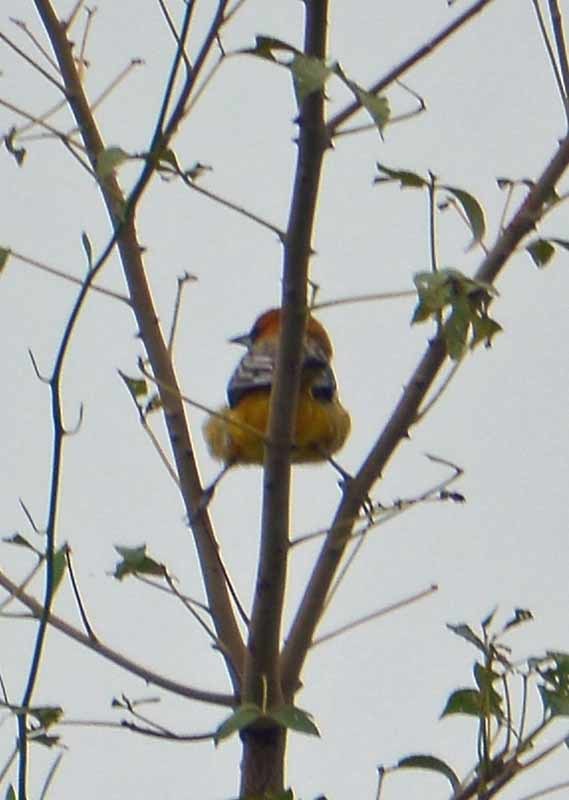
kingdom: Animalia
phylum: Chordata
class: Aves
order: Passeriformes
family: Icteridae
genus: Icterus
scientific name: Icterus pustulatus
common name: Streak-backed oriole
